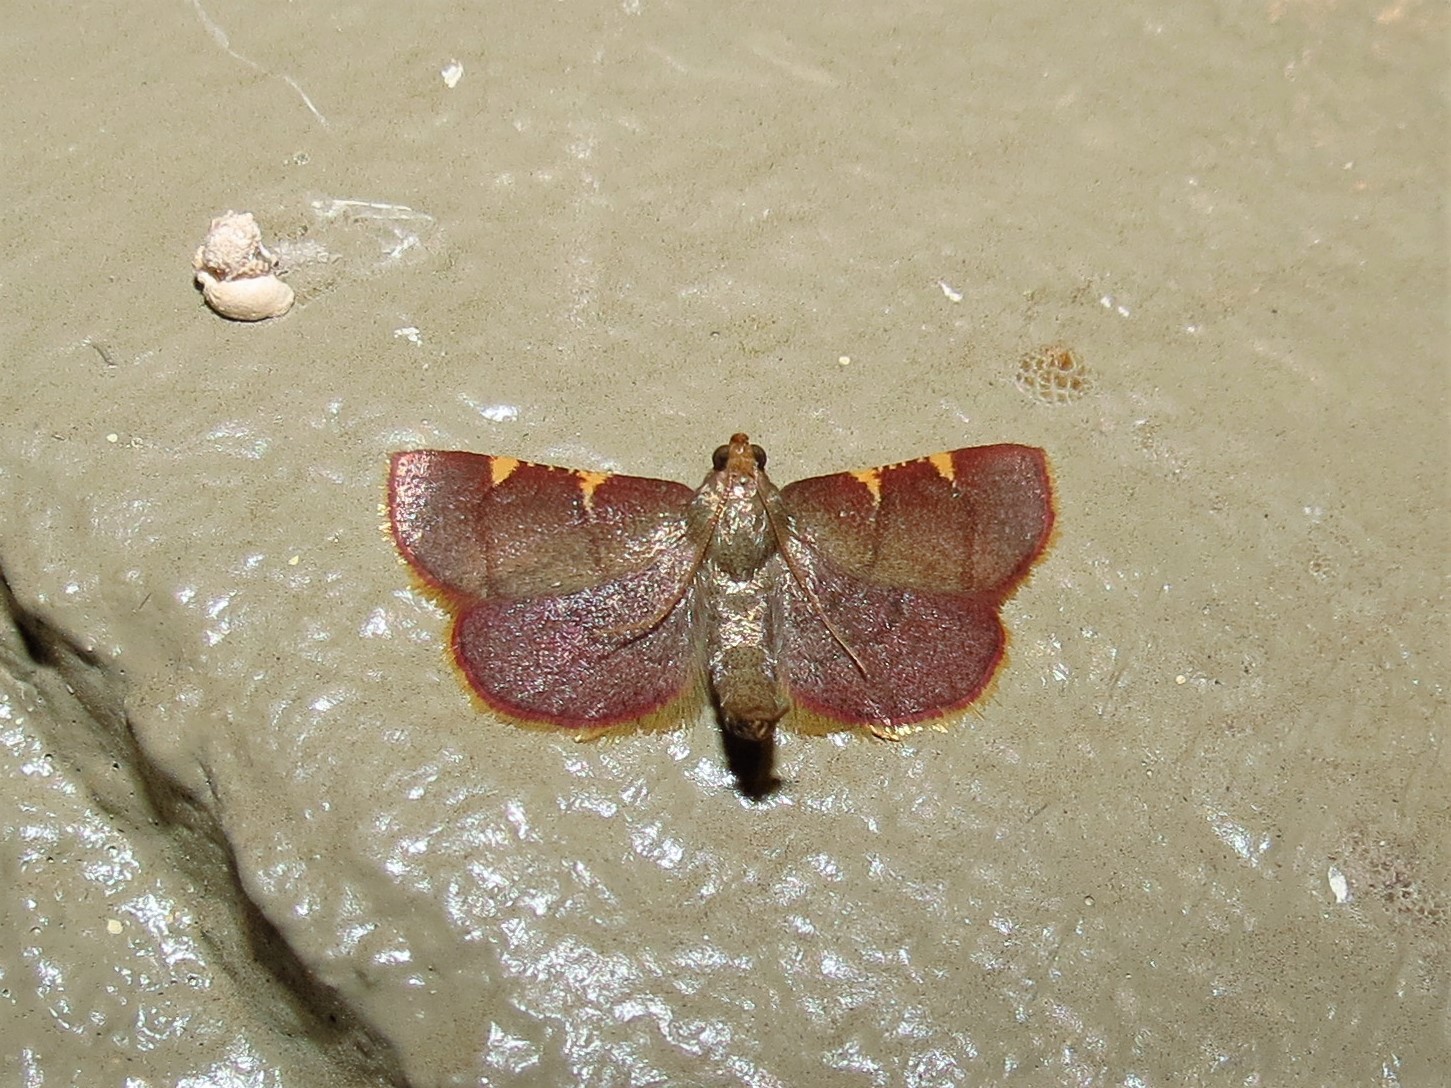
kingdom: Animalia
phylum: Arthropoda
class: Insecta
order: Lepidoptera
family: Pyralidae
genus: Hypsopygia
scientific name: Hypsopygia olinalis
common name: Yellow-fringed dolichomia moth
